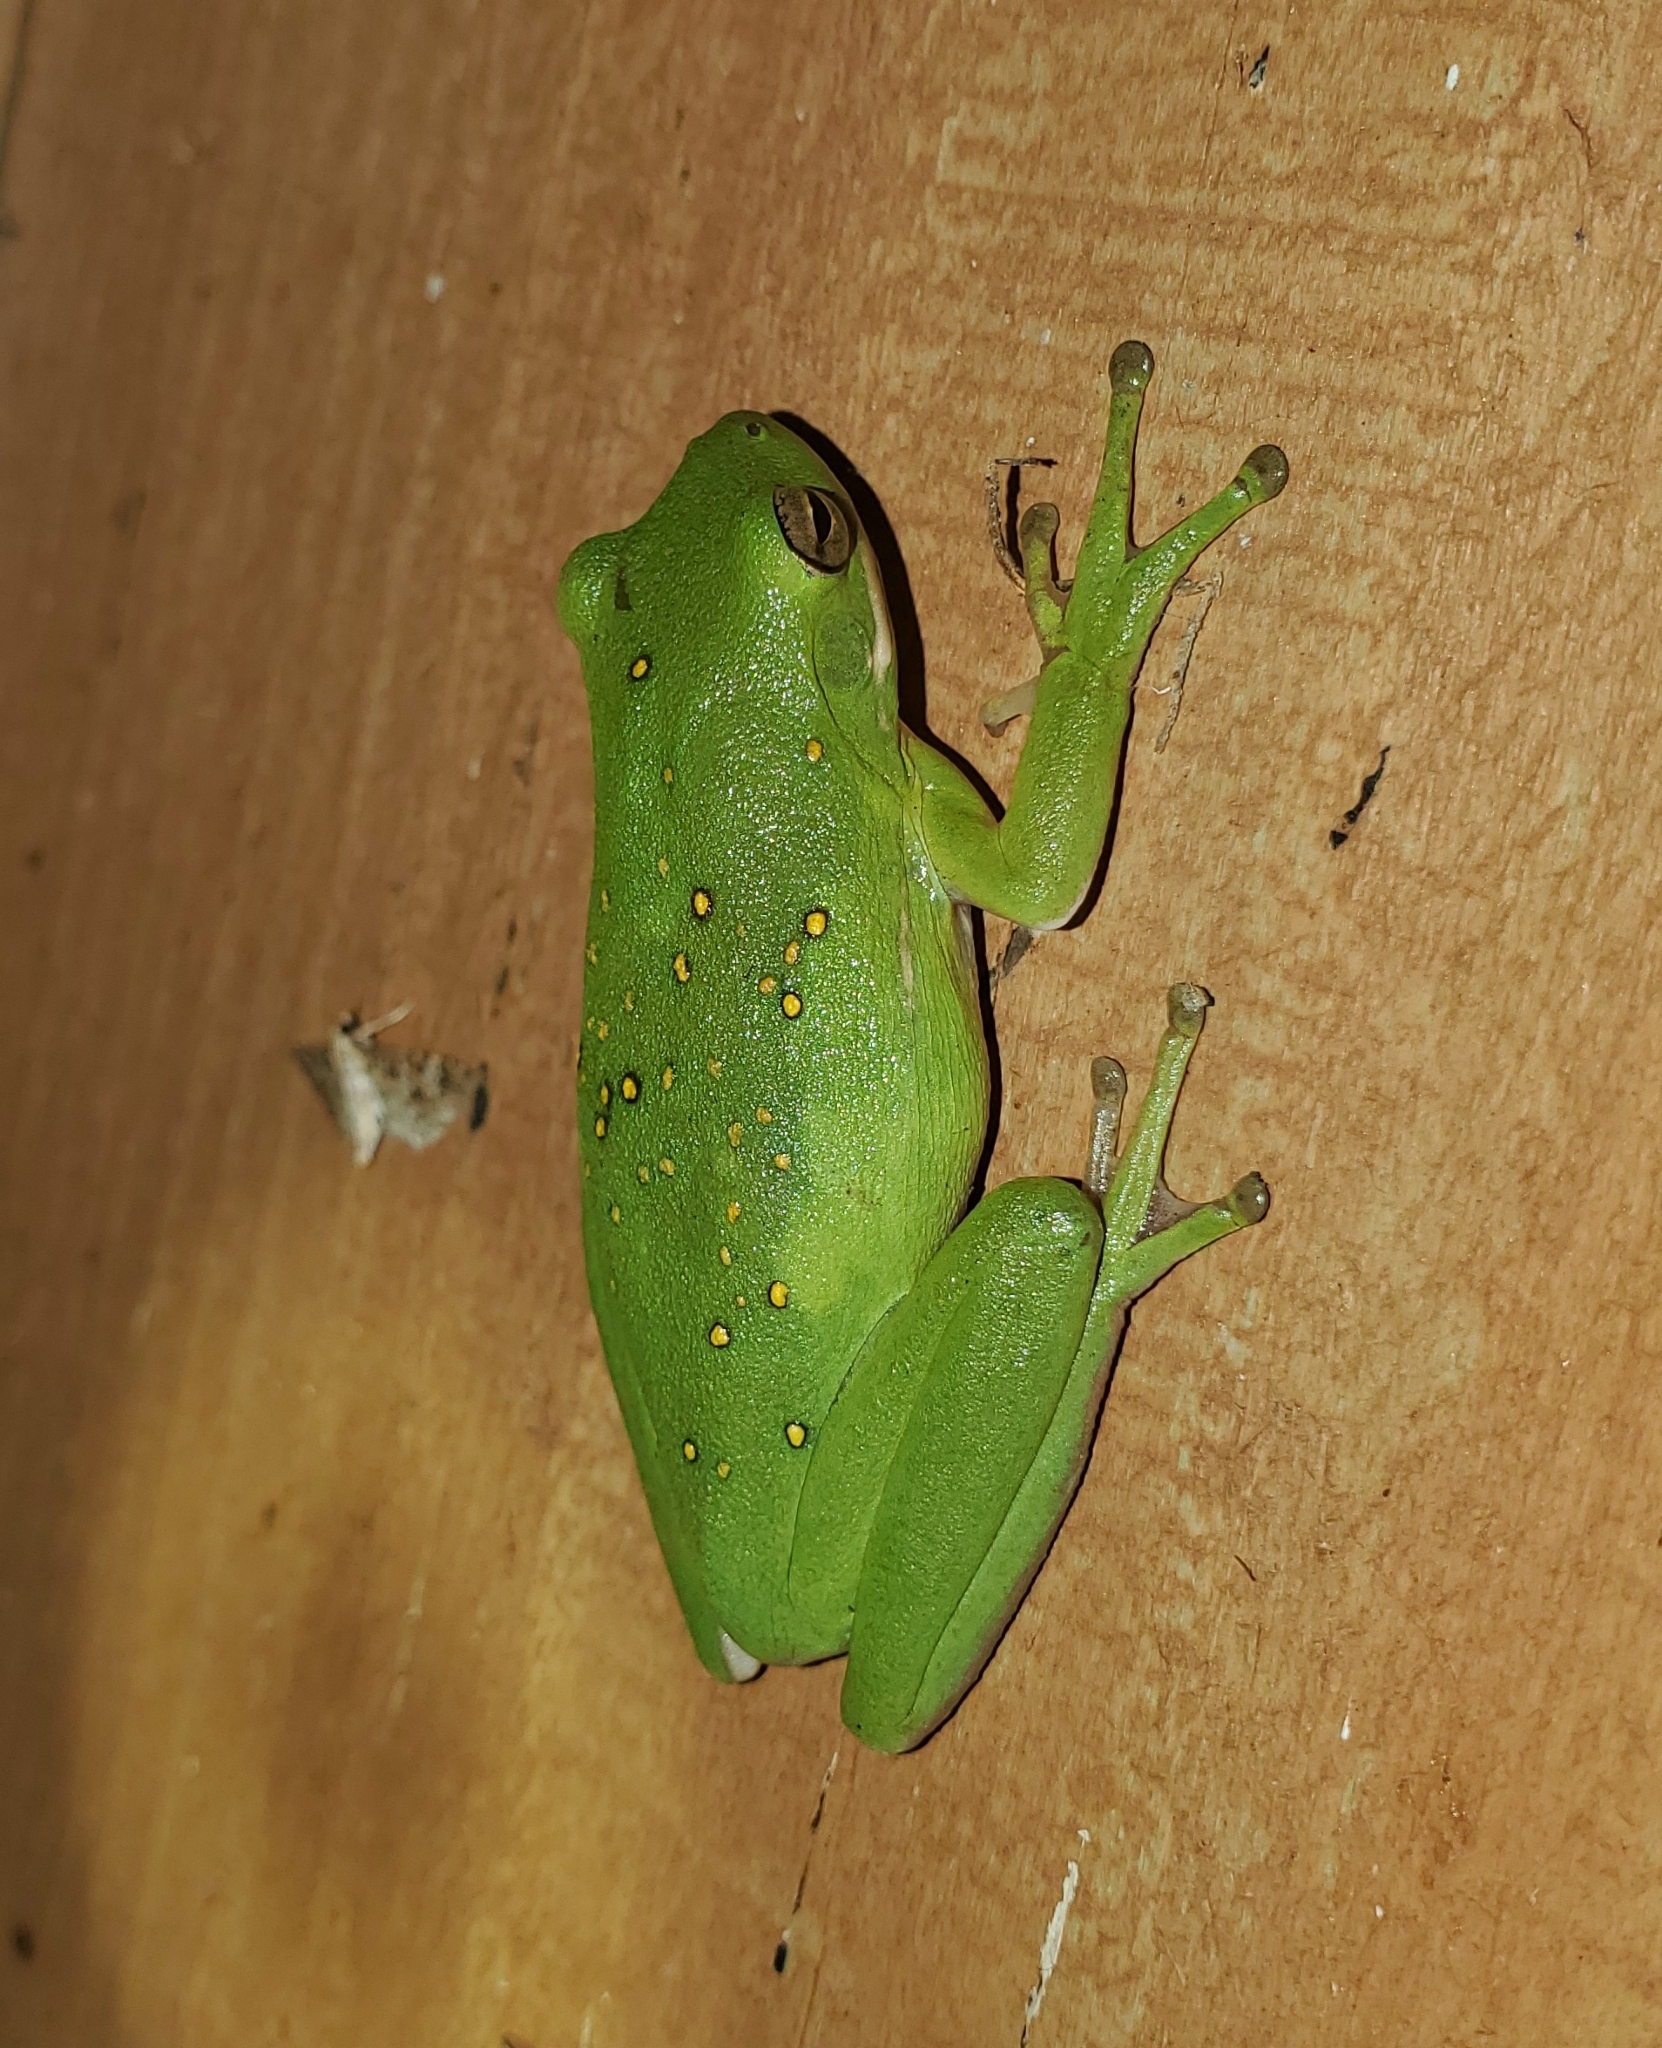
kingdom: Animalia
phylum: Chordata
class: Amphibia
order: Anura
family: Hylidae
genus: Dryophytes
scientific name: Dryophytes cinereus
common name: Green treefrog
